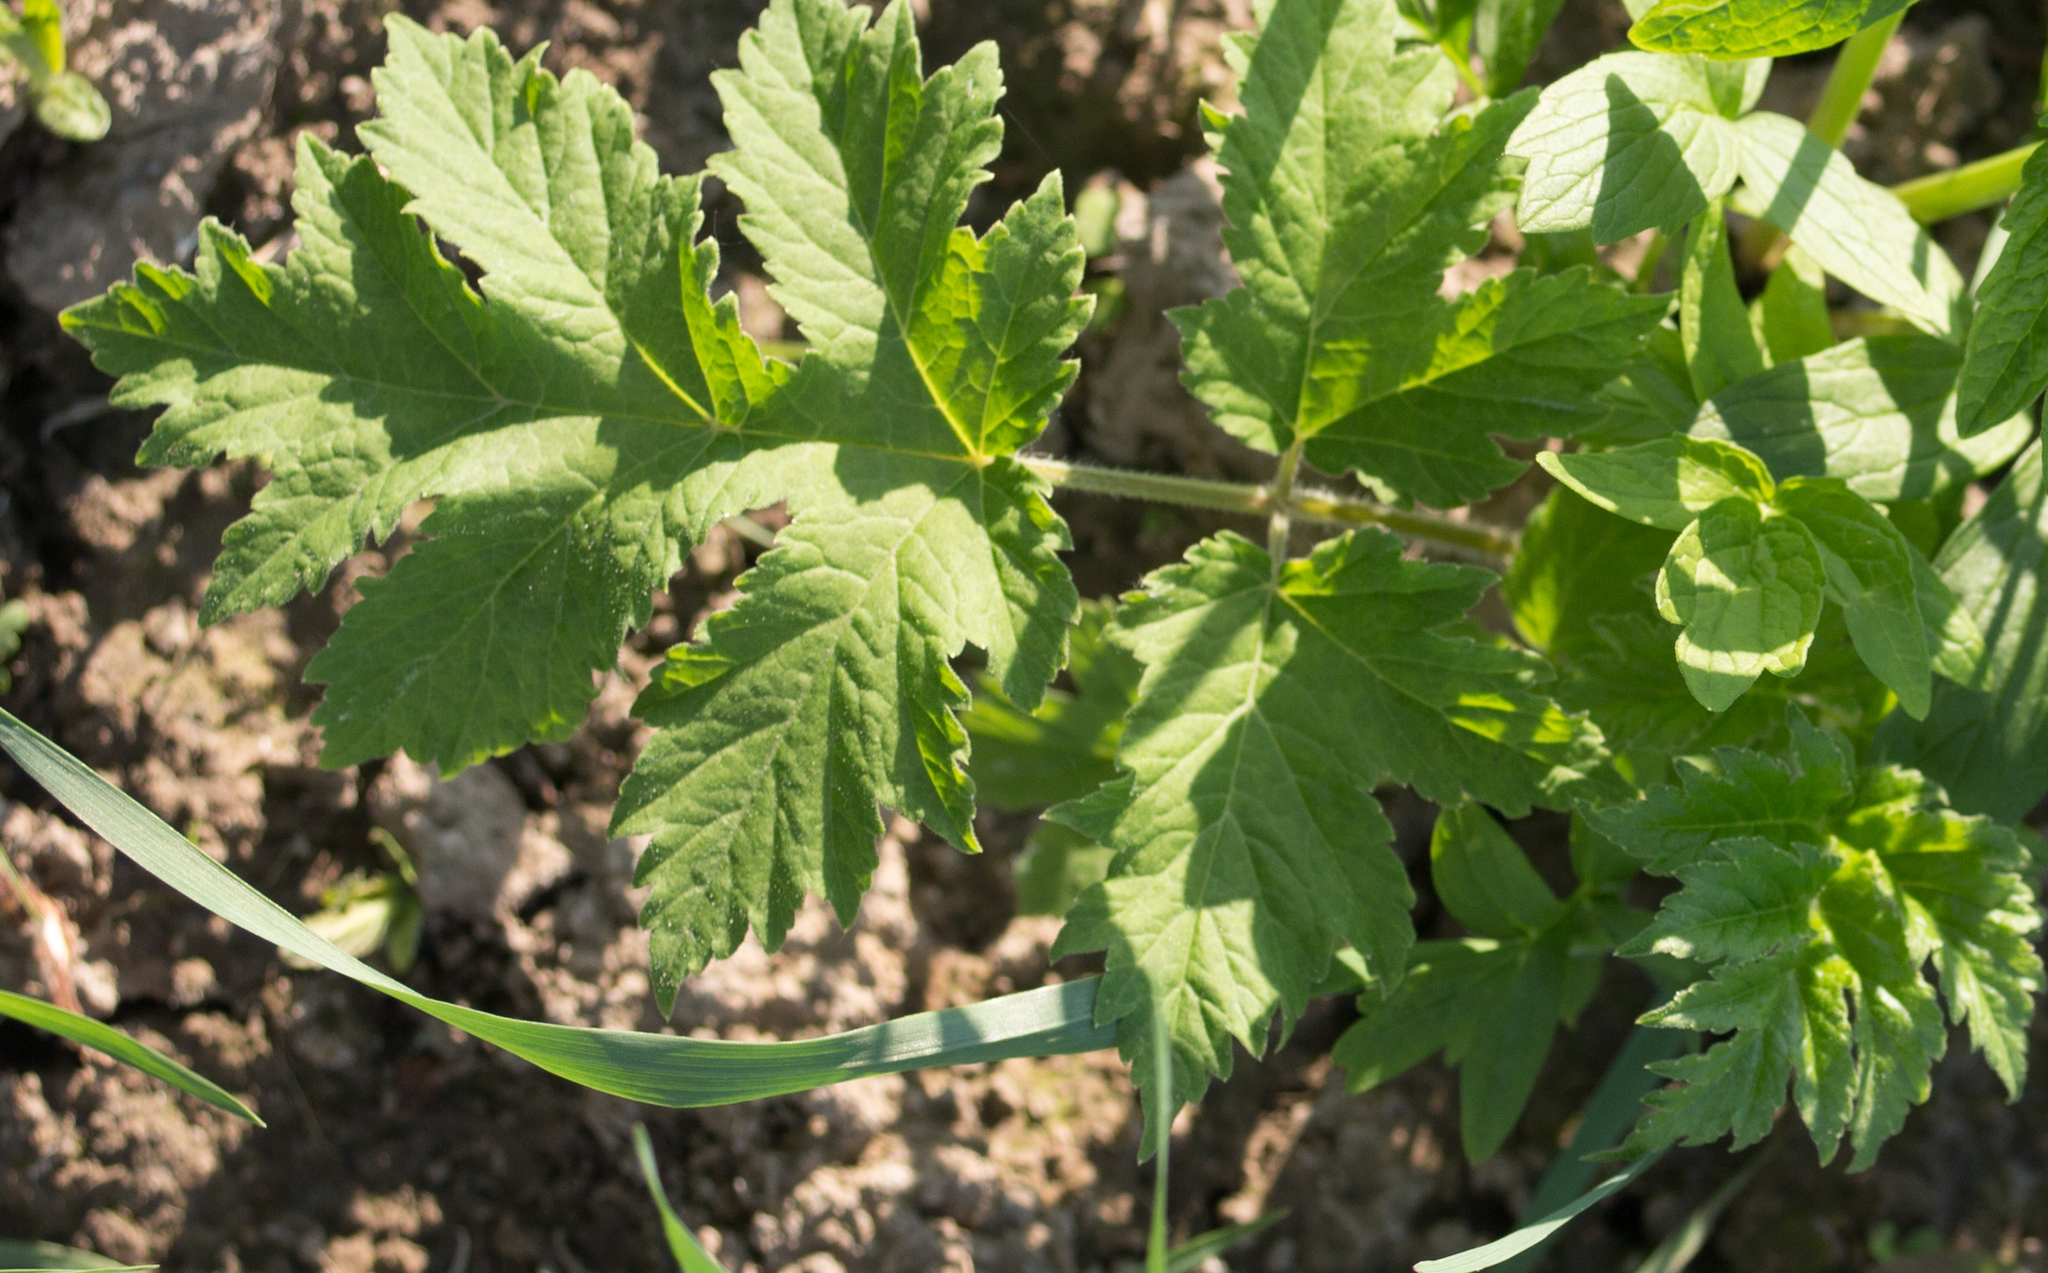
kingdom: Plantae
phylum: Tracheophyta
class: Magnoliopsida
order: Apiales
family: Apiaceae
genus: Heracleum
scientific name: Heracleum sphondylium
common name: Hogweed
